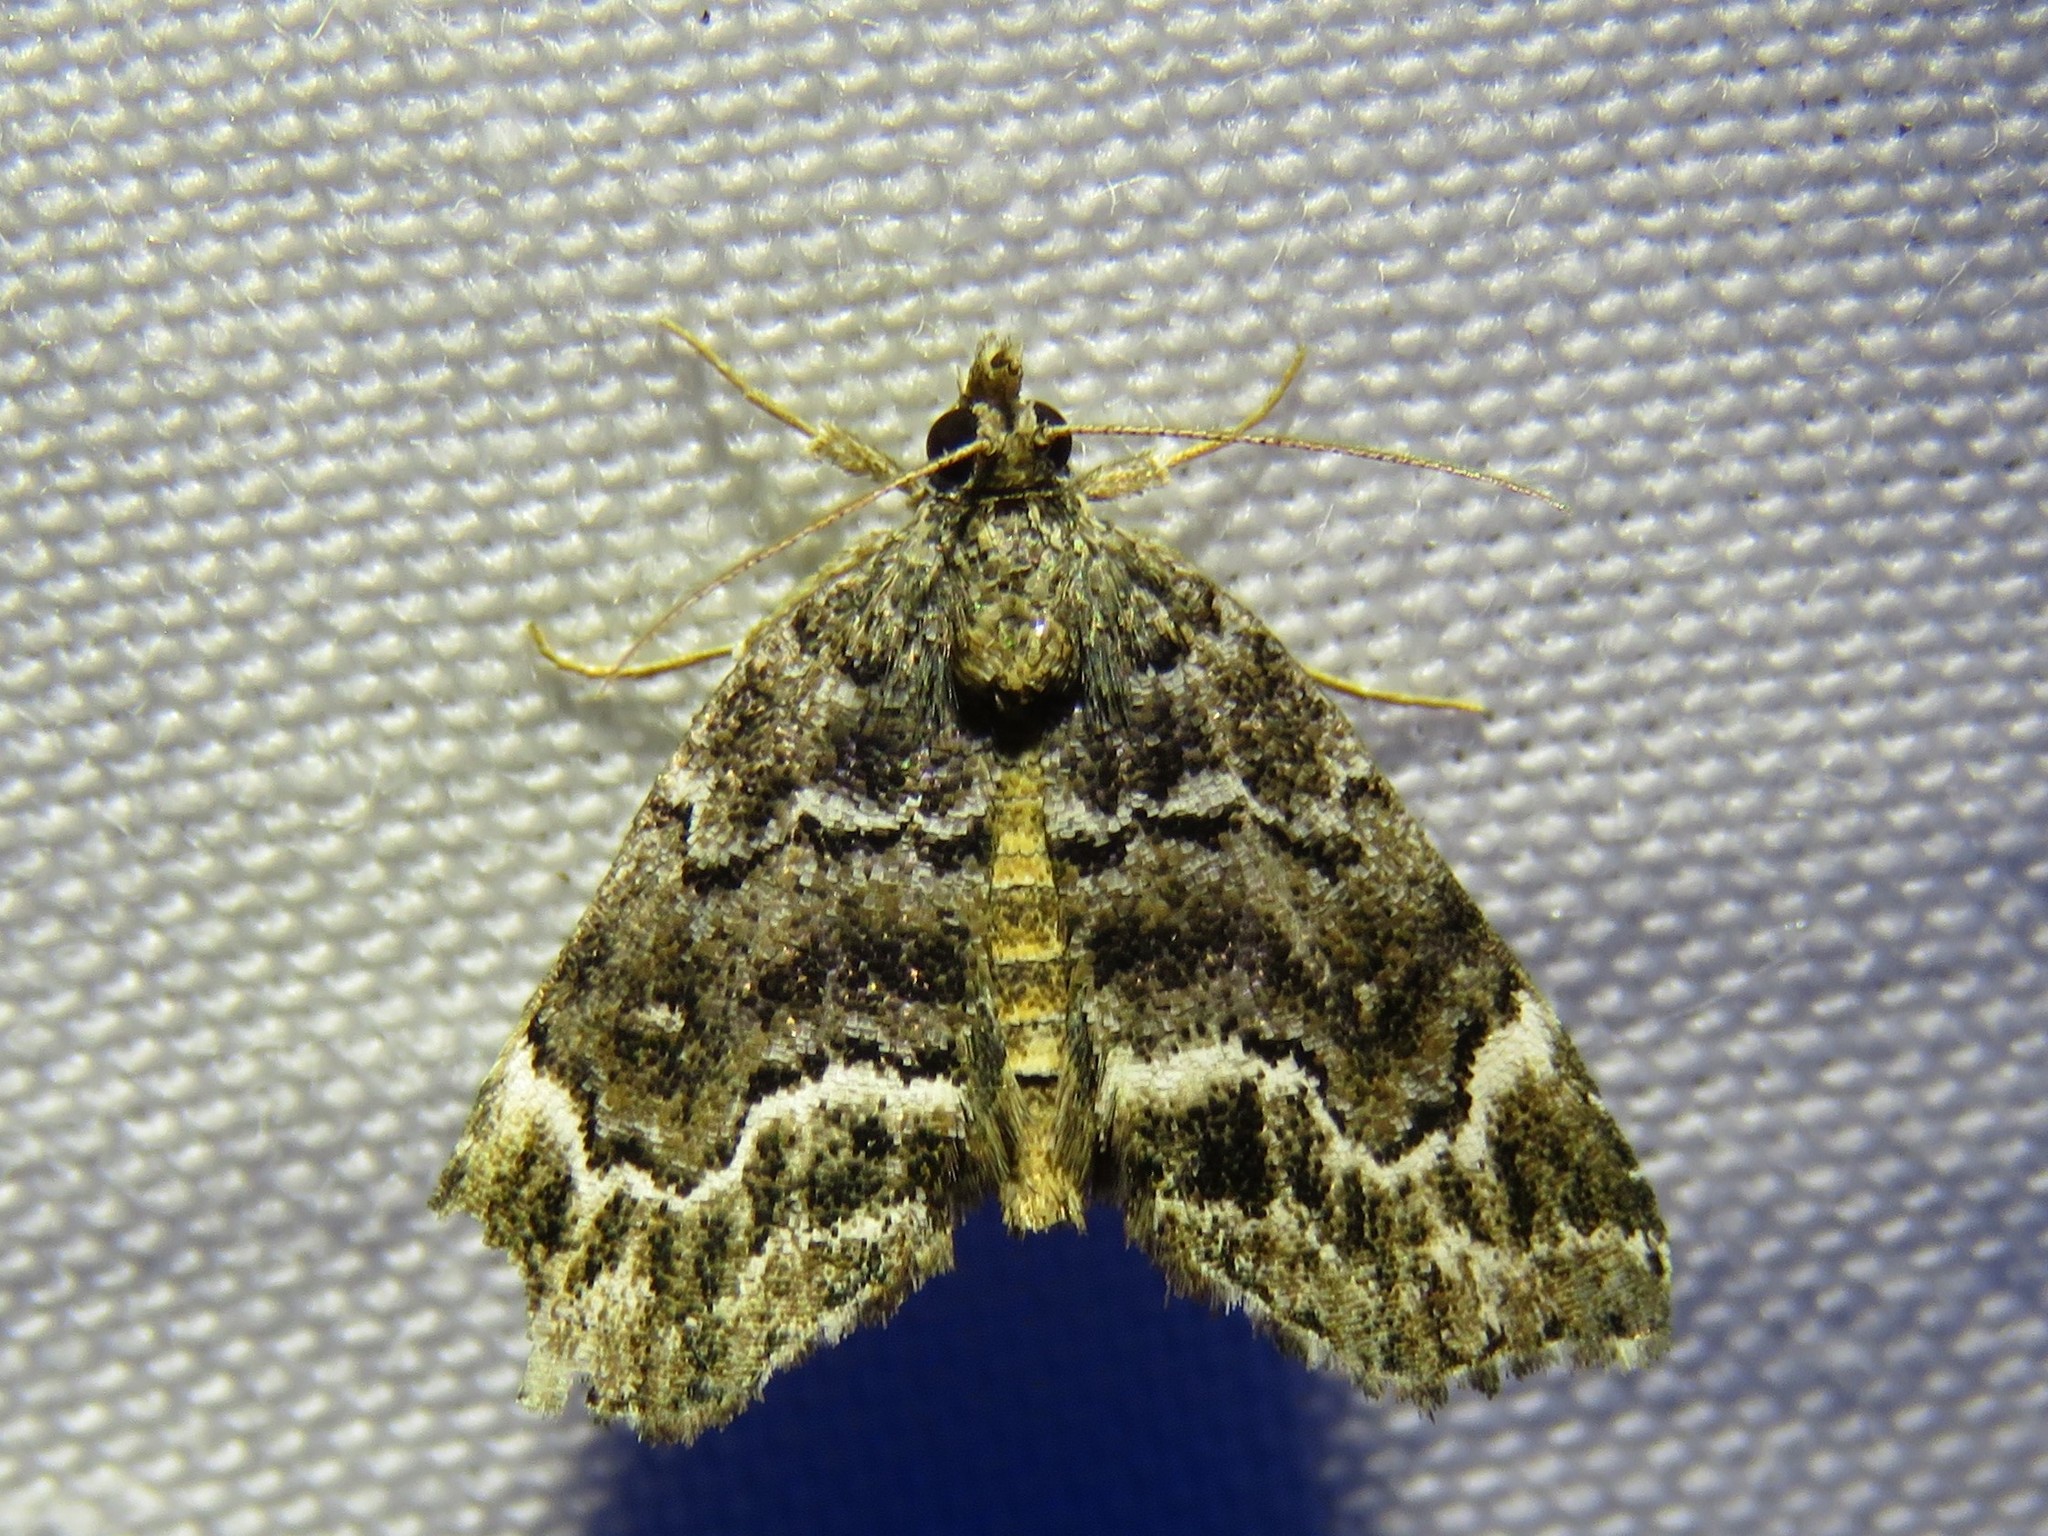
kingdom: Animalia
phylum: Arthropoda
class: Insecta
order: Lepidoptera
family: Erebidae
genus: Cutina
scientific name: Cutina arcuata
